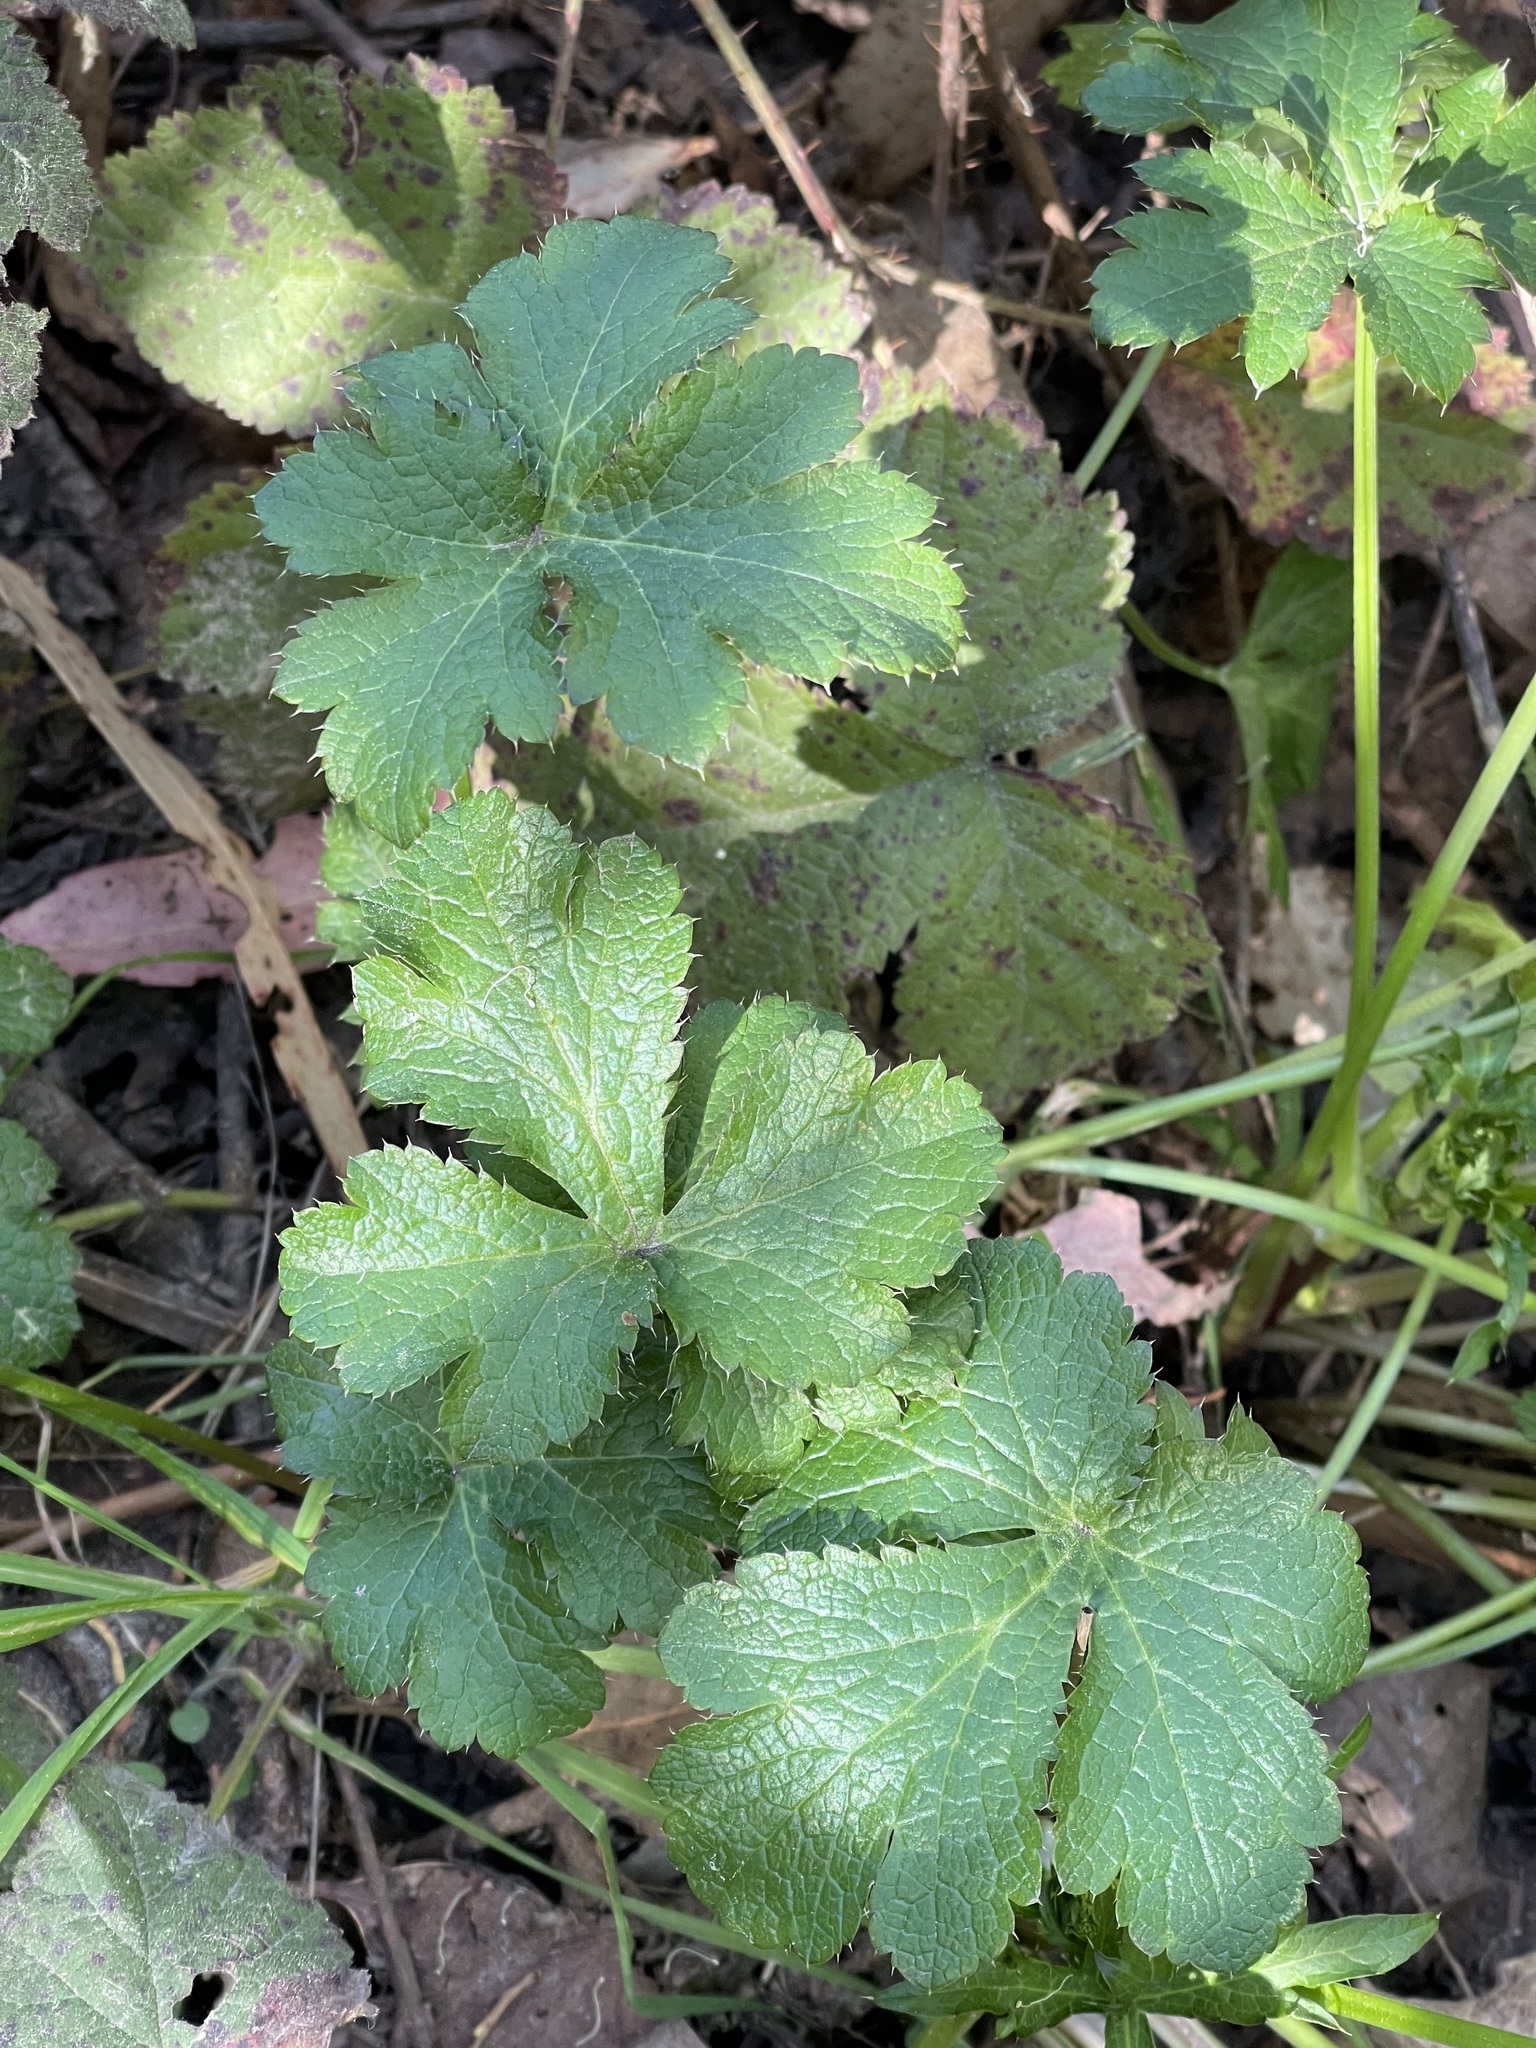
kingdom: Plantae
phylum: Tracheophyta
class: Magnoliopsida
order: Apiales
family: Apiaceae
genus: Sanicula
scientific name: Sanicula crassicaulis
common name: Western snakeroot
